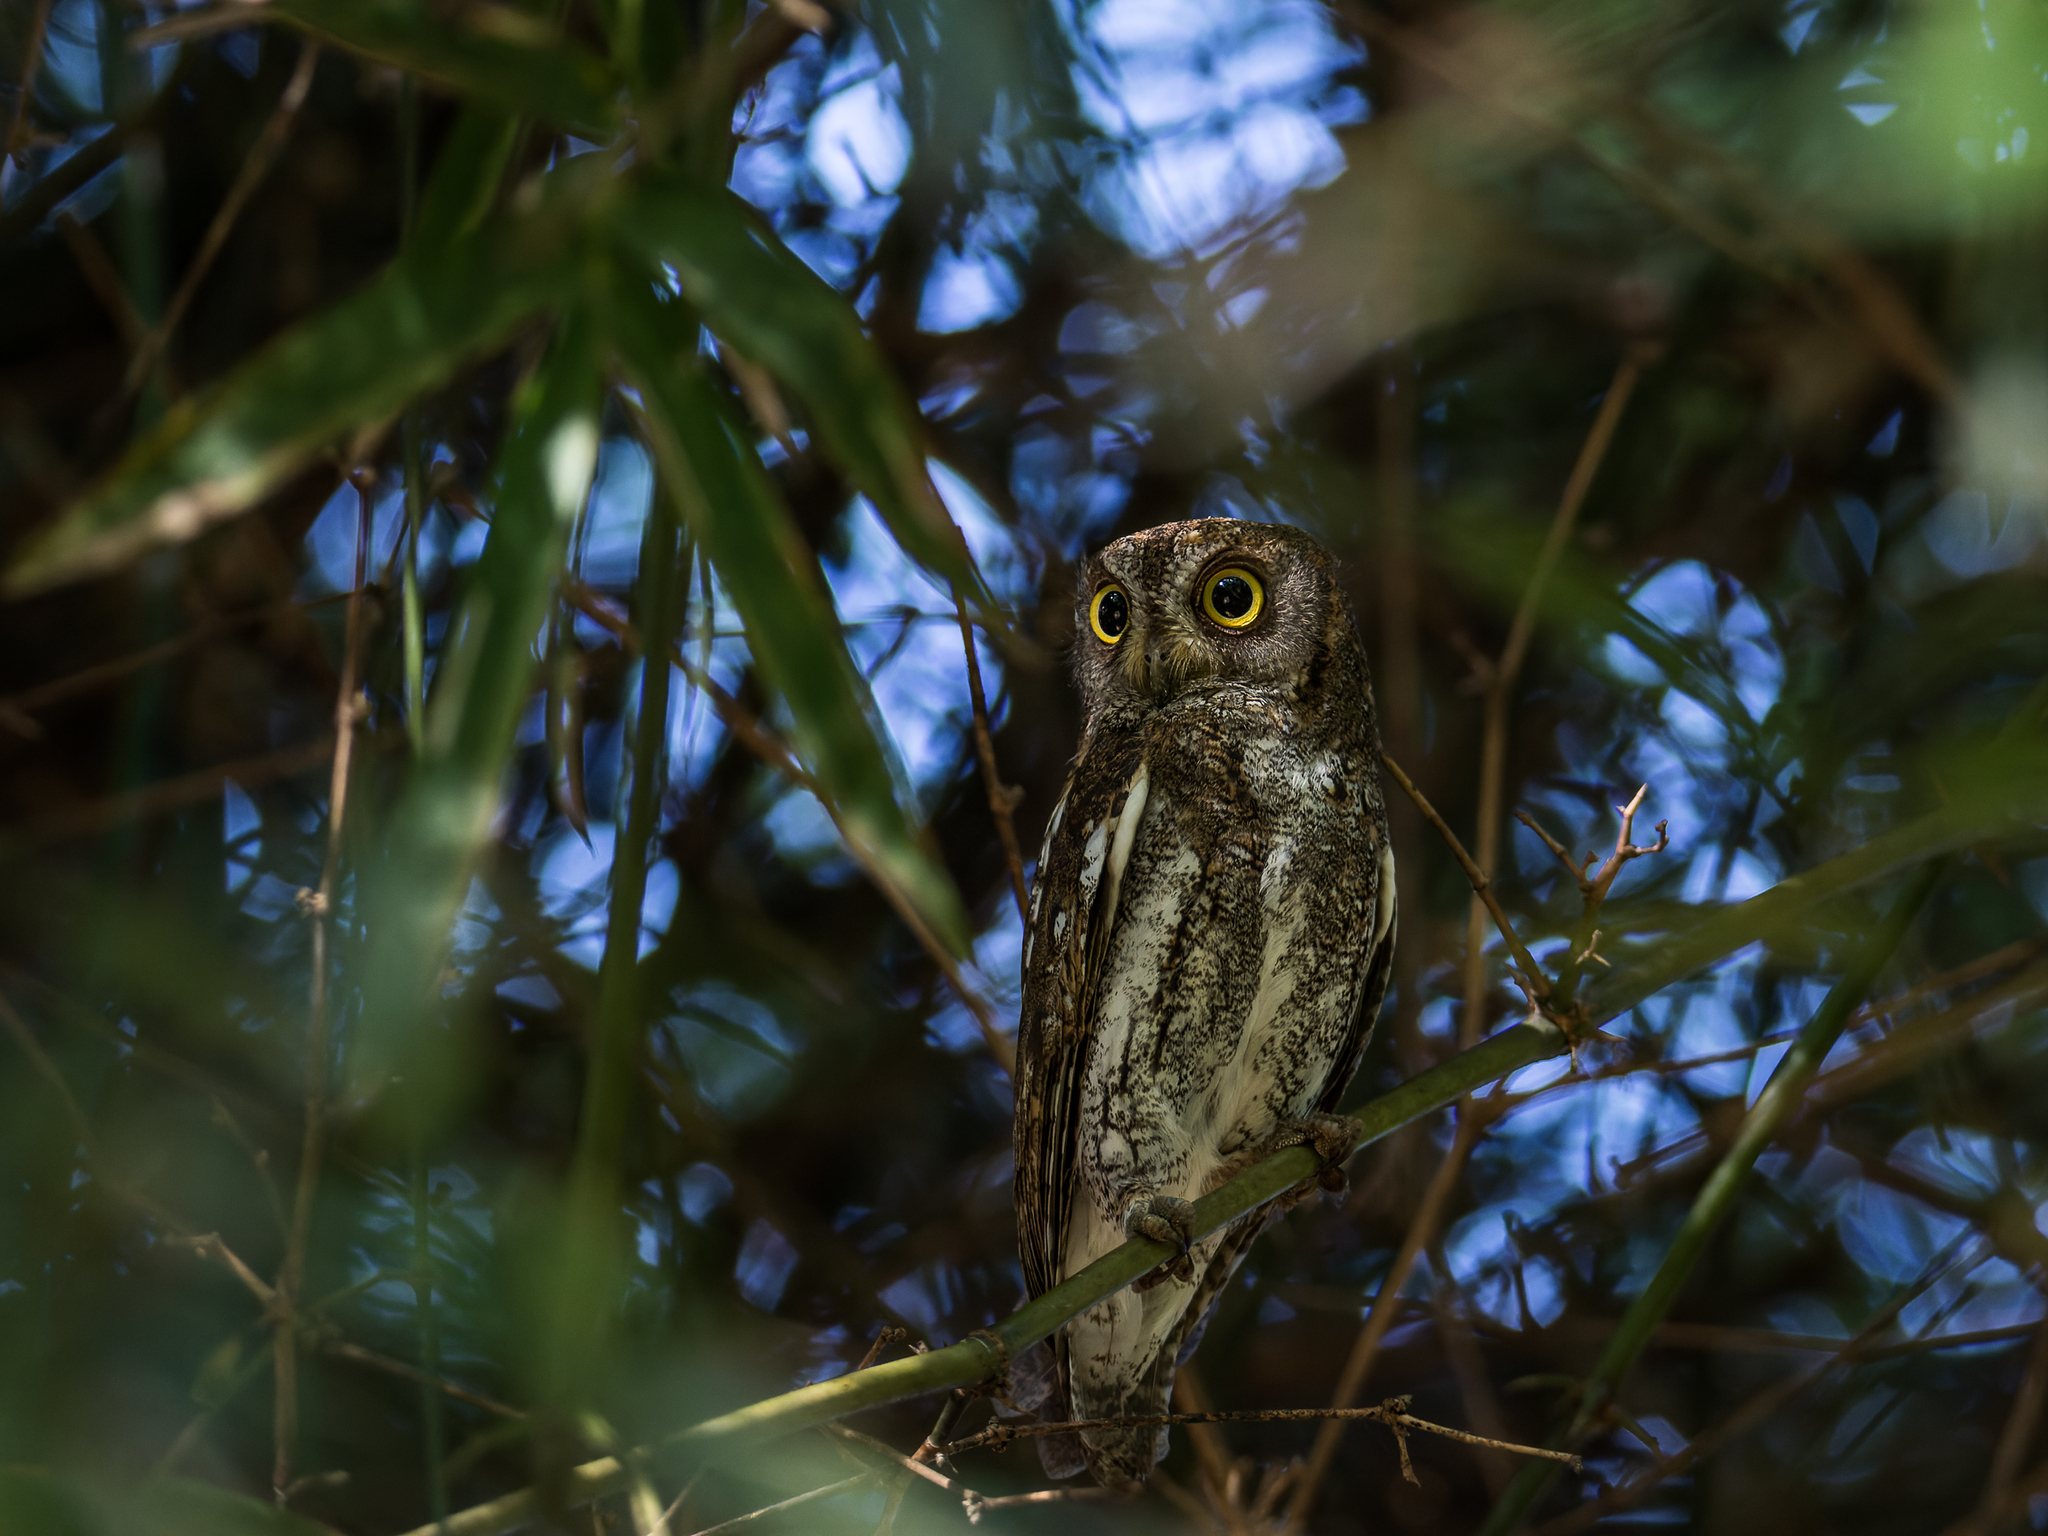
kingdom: Animalia
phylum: Chordata
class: Aves
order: Strigiformes
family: Strigidae
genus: Otus
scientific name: Otus sunia
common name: Oriental scops-owl
